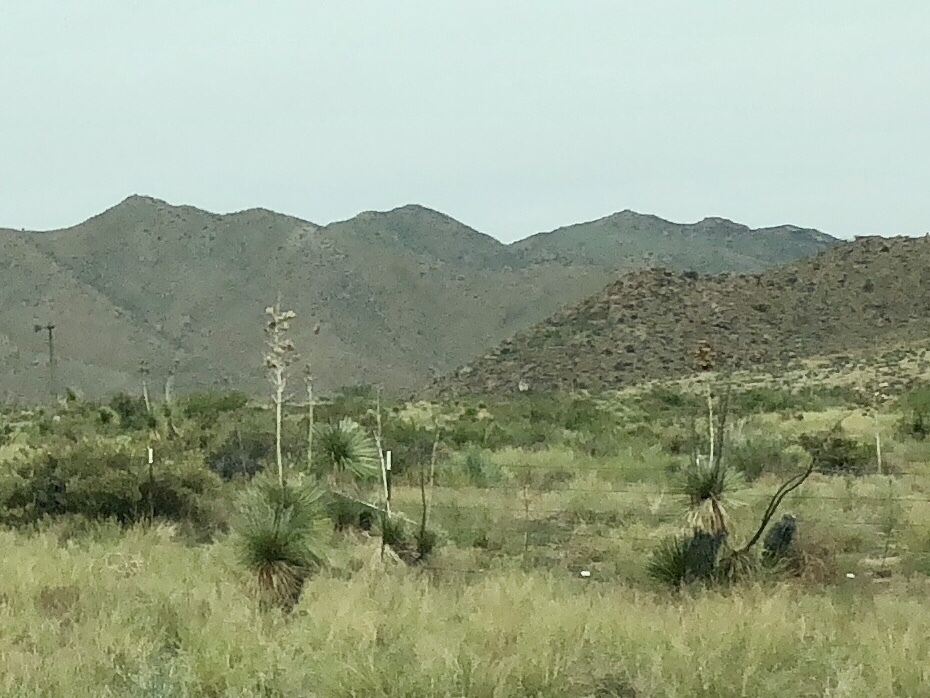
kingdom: Plantae
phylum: Tracheophyta
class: Liliopsida
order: Asparagales
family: Asparagaceae
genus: Yucca
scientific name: Yucca elata
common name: Palmella
